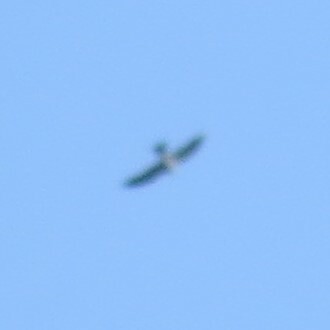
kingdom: Animalia
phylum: Chordata
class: Aves
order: Accipitriformes
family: Accipitridae
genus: Ictinia
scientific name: Ictinia mississippiensis
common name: Mississippi kite
